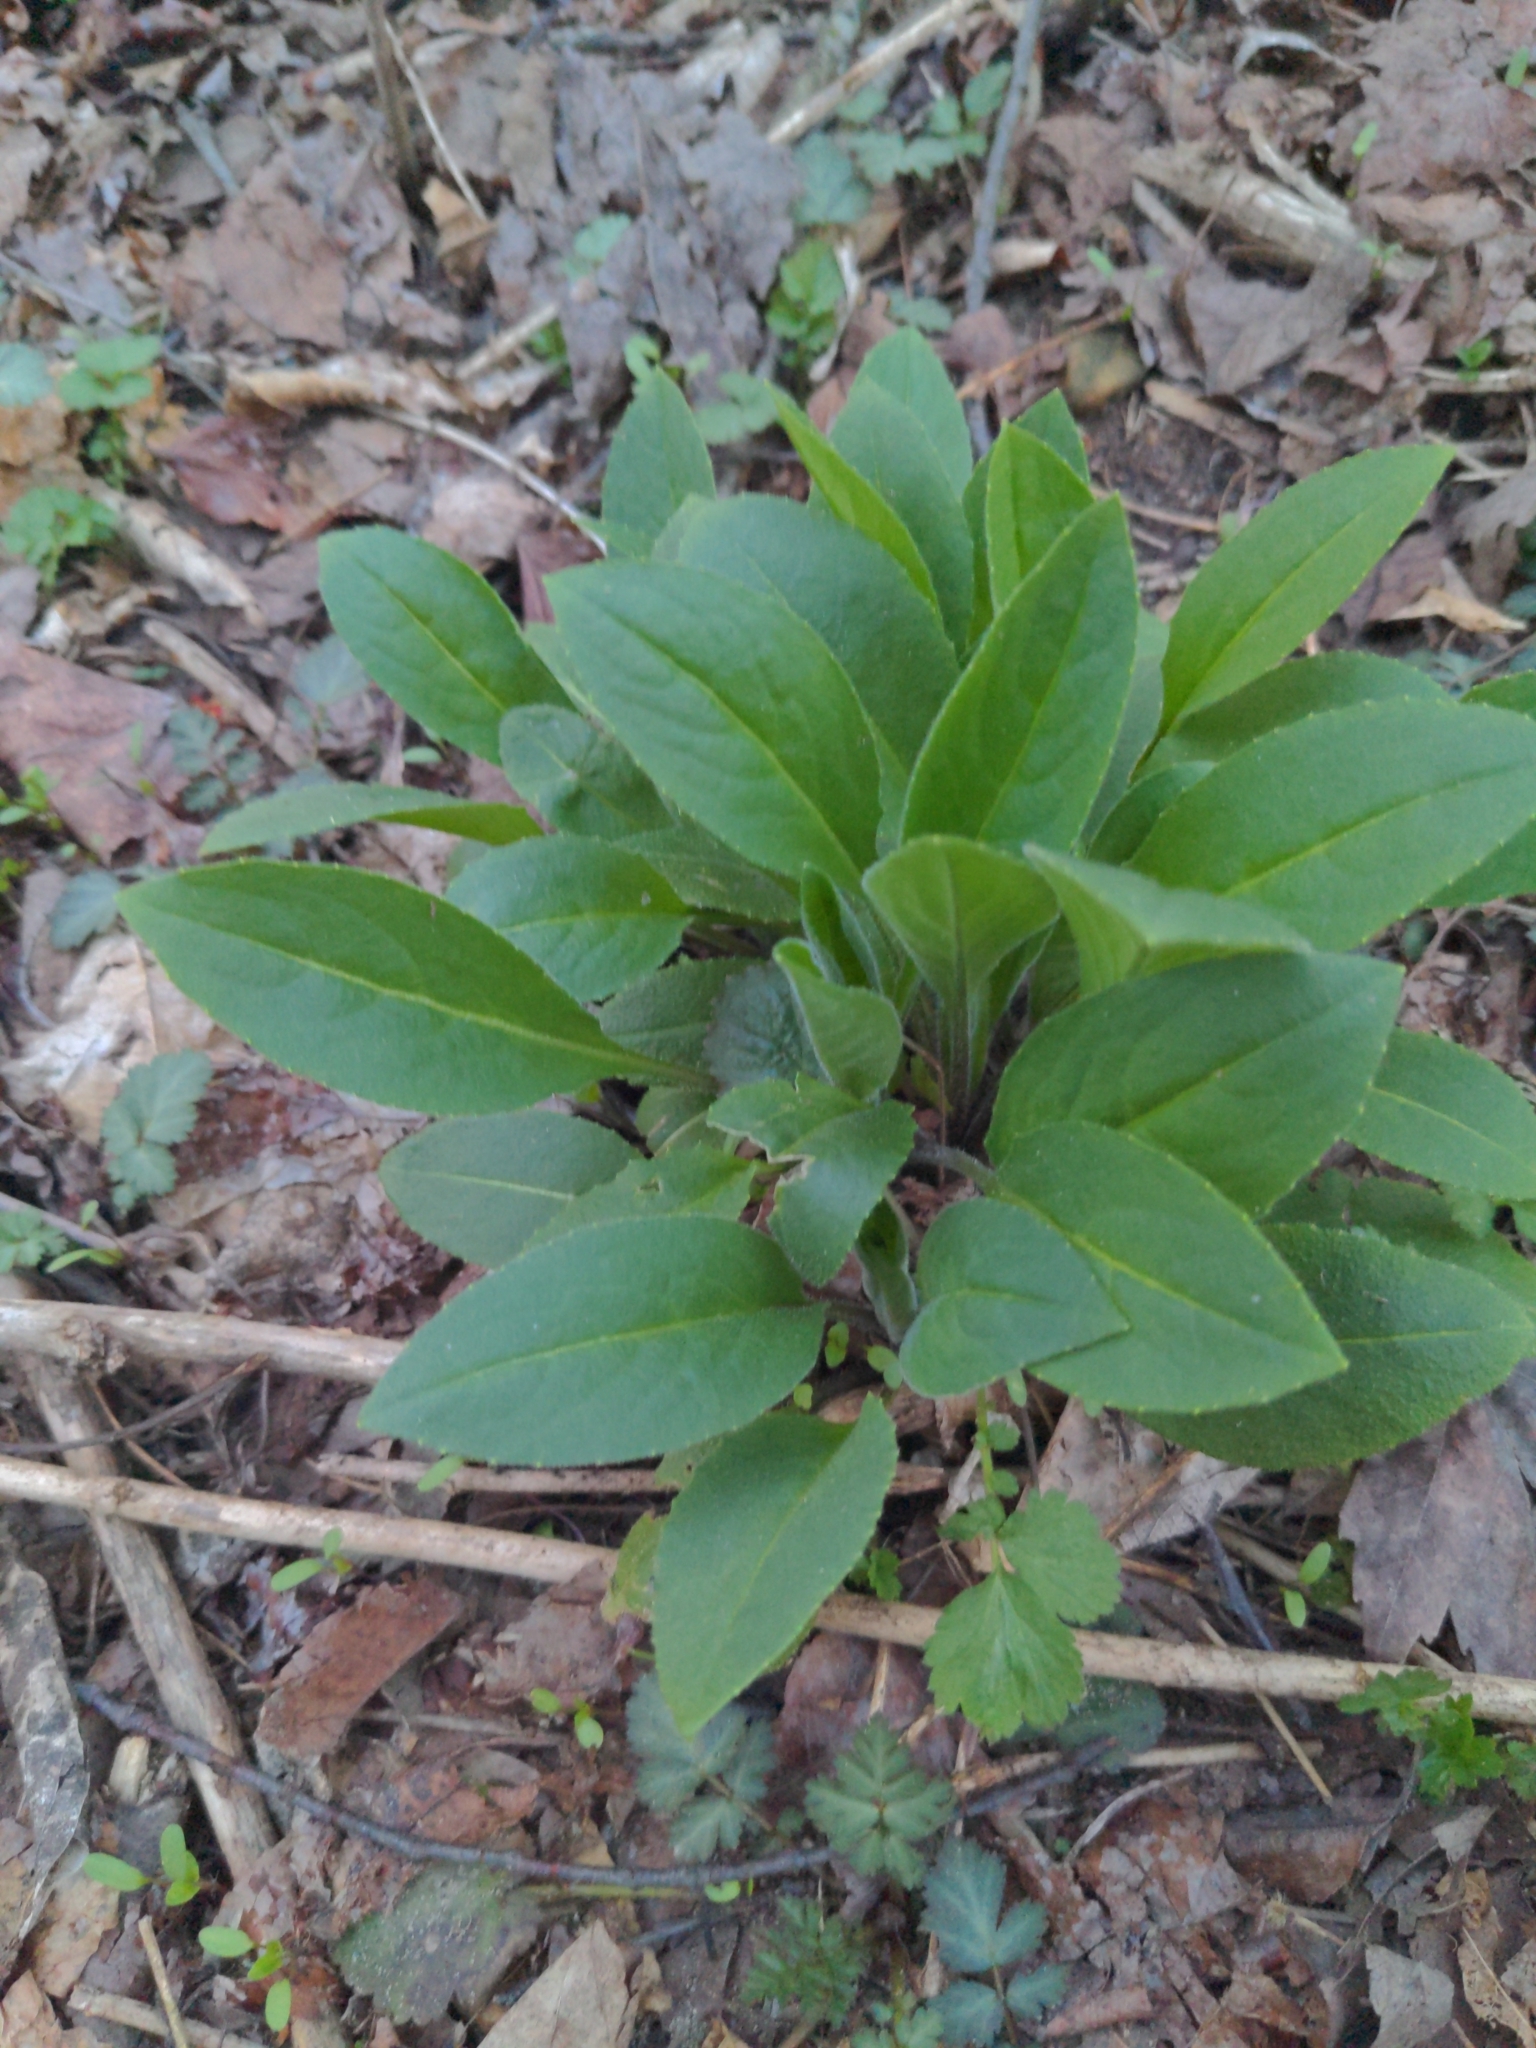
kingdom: Plantae
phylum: Tracheophyta
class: Magnoliopsida
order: Brassicales
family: Brassicaceae
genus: Hesperis
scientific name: Hesperis matronalis
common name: Dame's-violet
